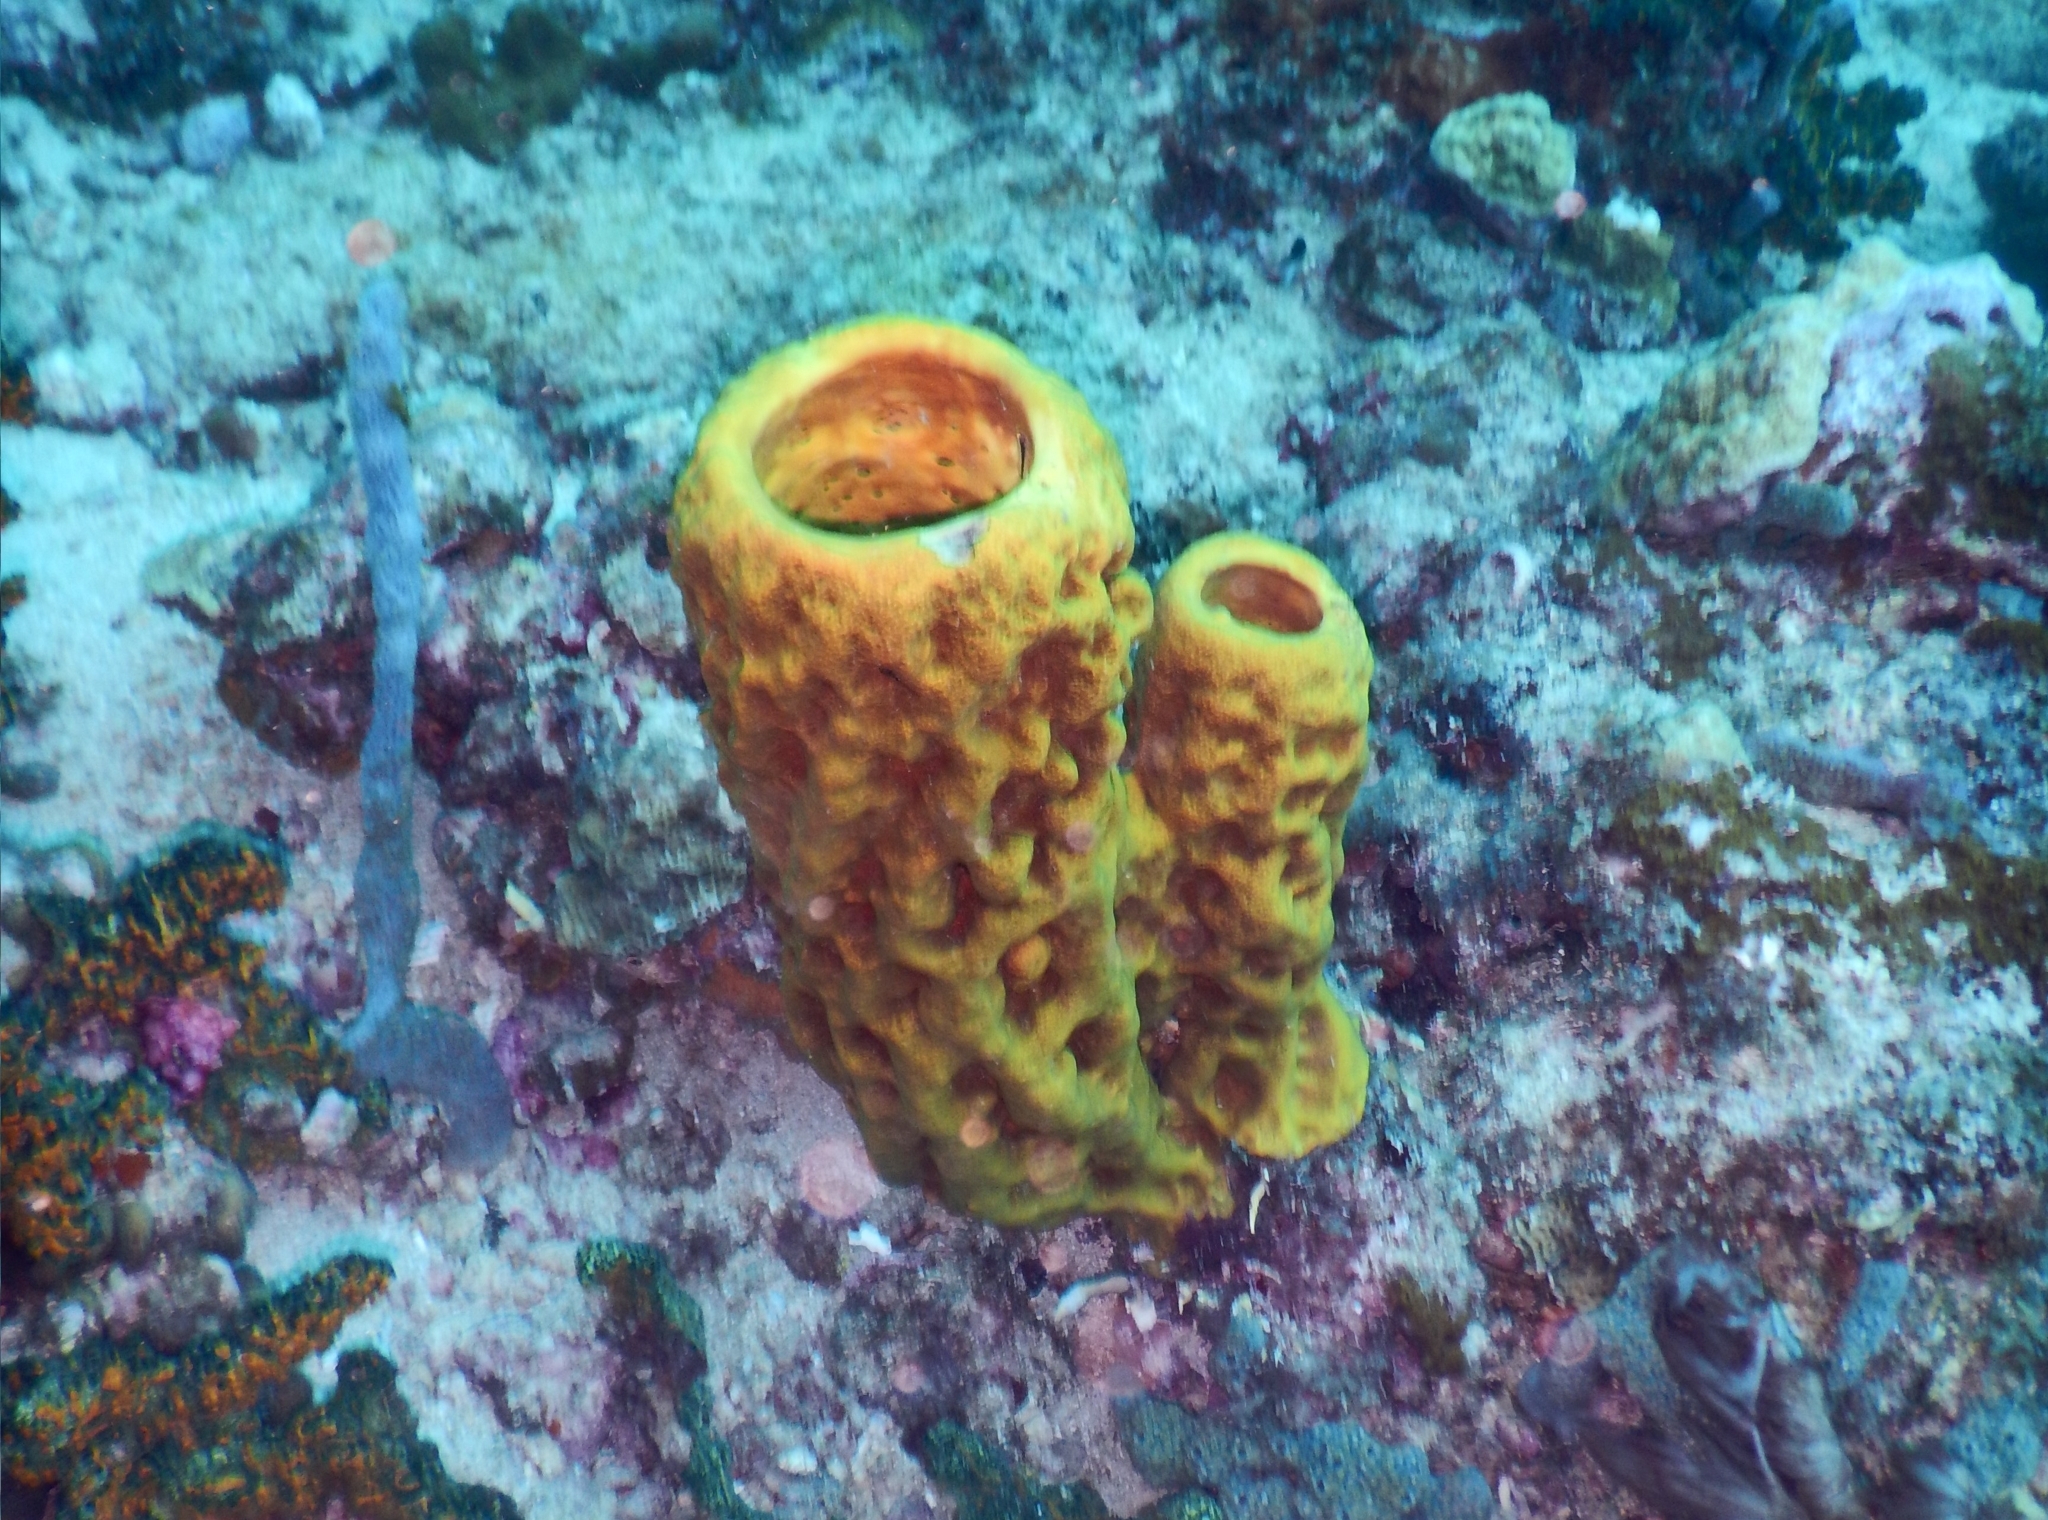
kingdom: Animalia
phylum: Porifera
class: Demospongiae
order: Verongiida
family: Aplysinidae
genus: Aplysina
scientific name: Aplysina fistularis
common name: Candle sponge
